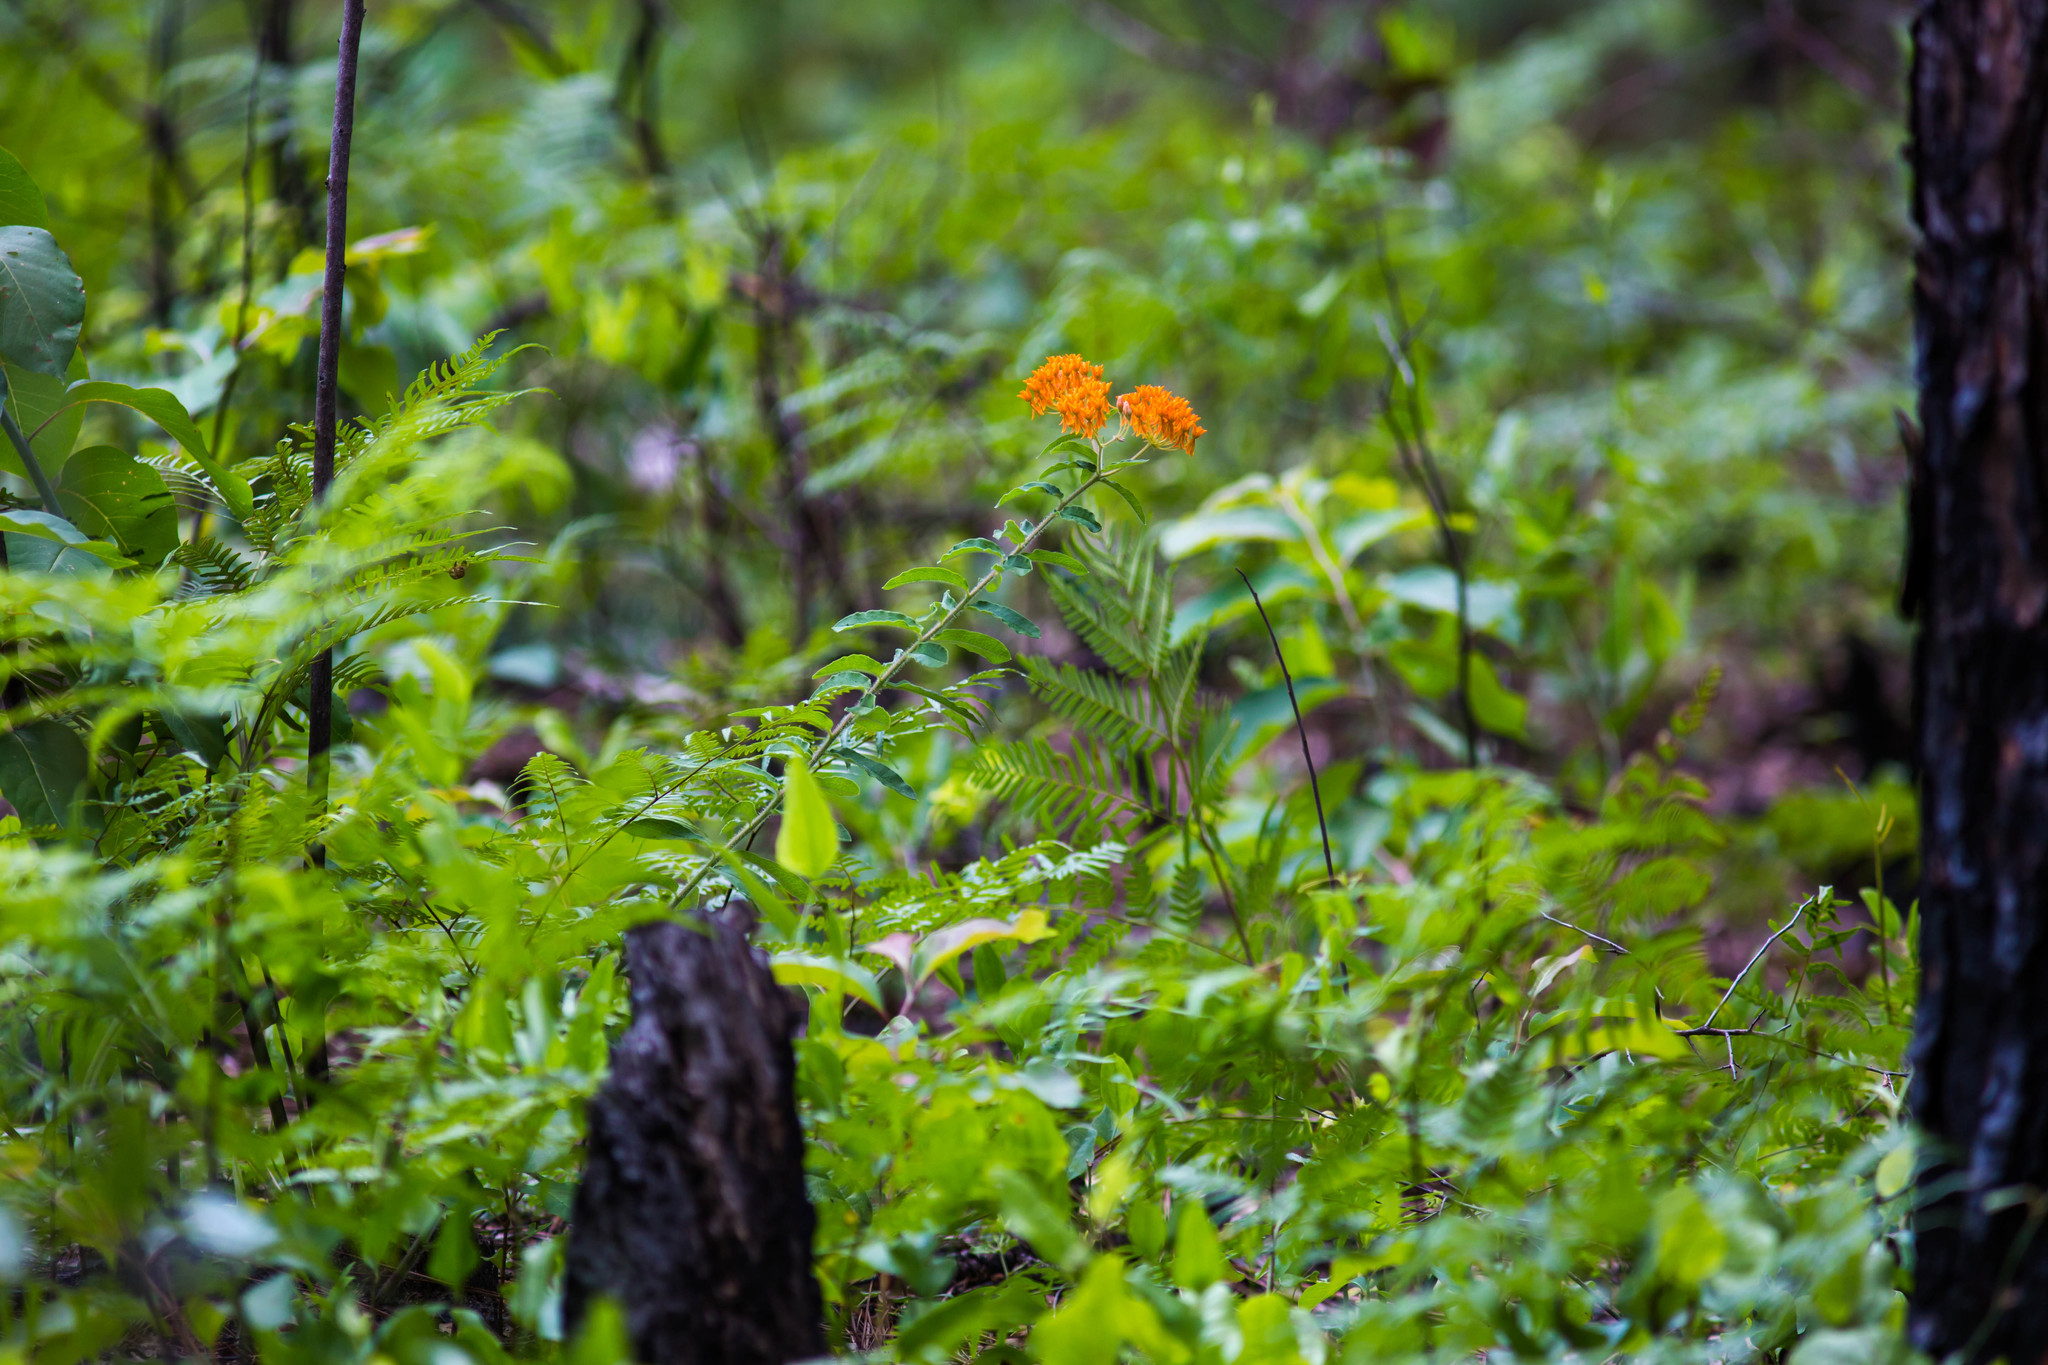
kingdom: Plantae
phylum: Tracheophyta
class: Magnoliopsida
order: Gentianales
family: Apocynaceae
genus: Asclepias
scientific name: Asclepias tuberosa
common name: Butterfly milkweed
